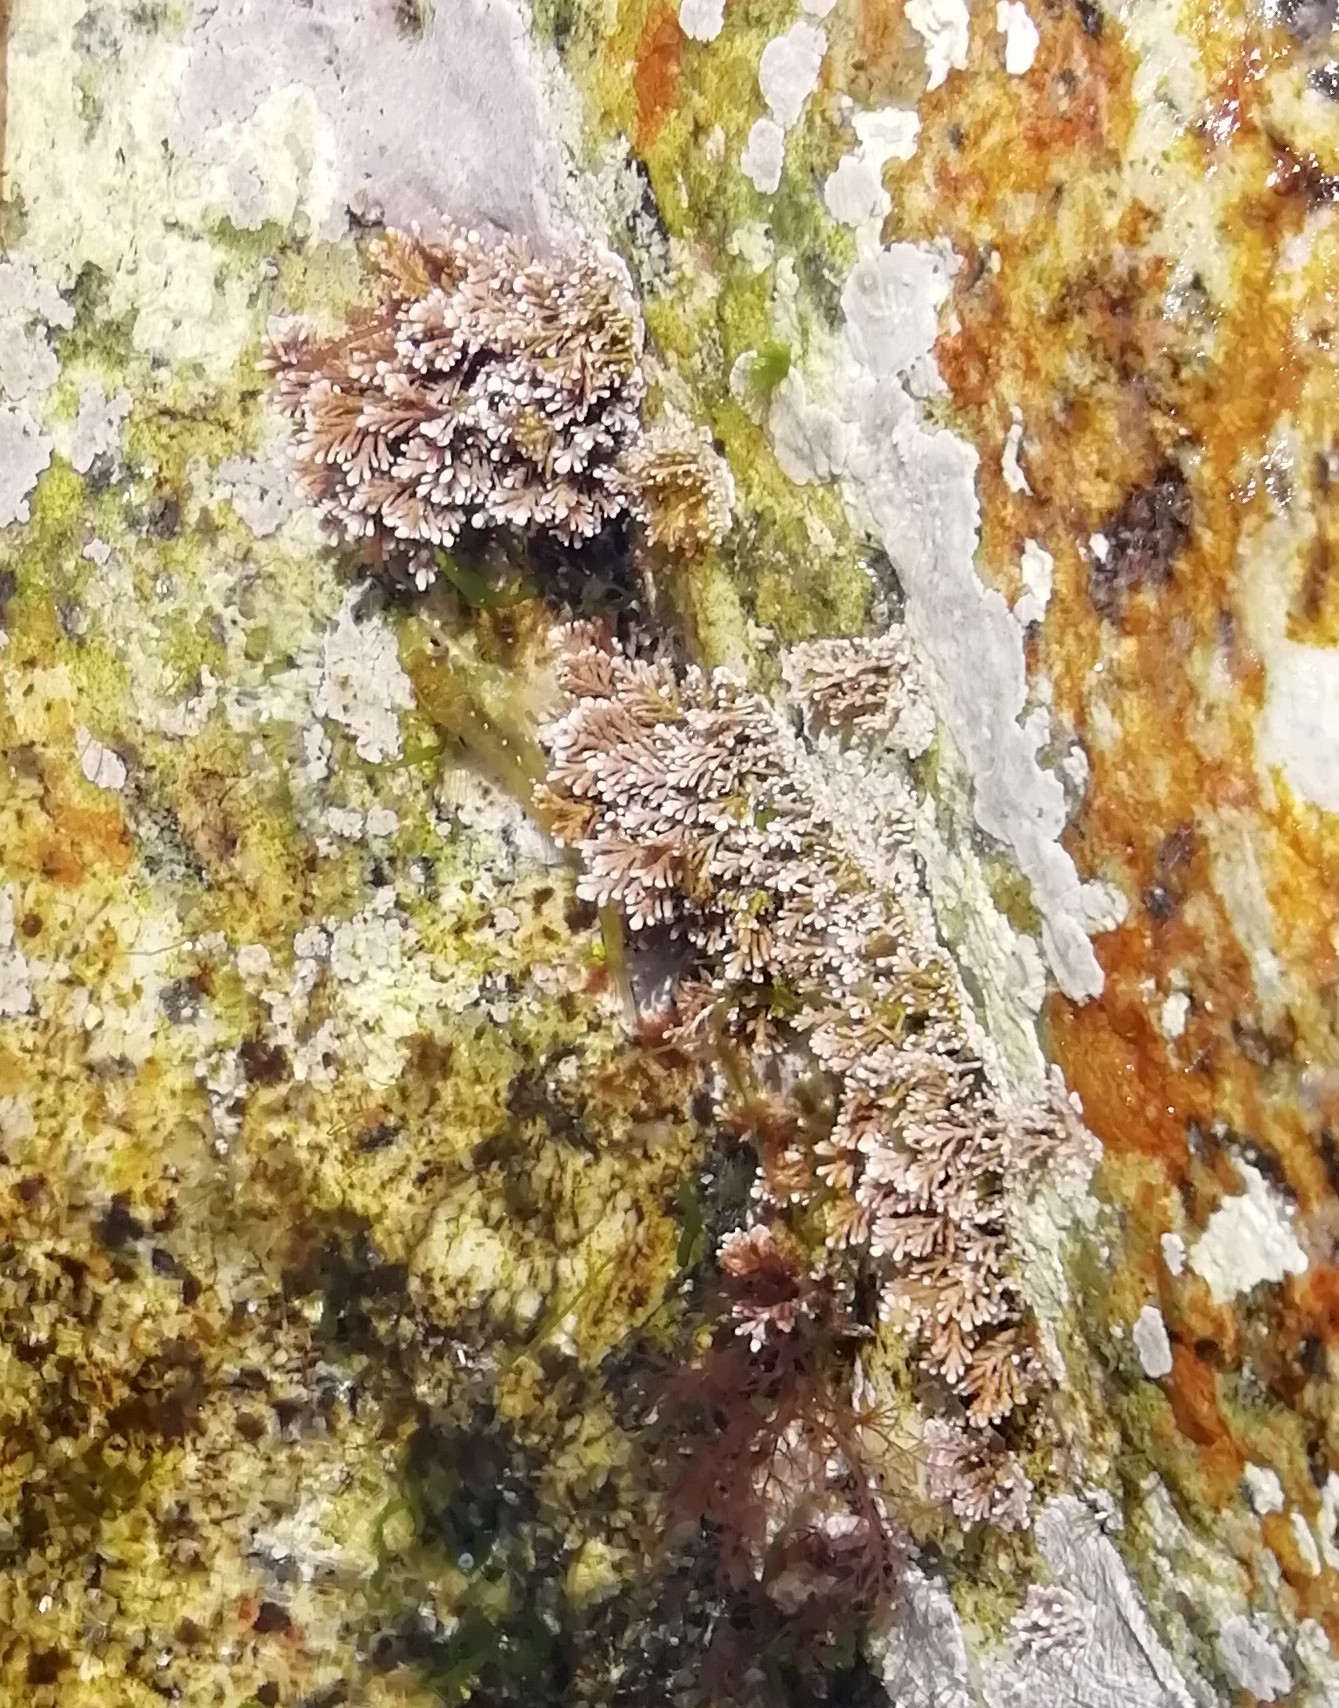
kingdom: Animalia
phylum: Chordata
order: Perciformes
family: Blenniidae
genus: Lipophrys
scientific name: Lipophrys pholis
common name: Shanny
